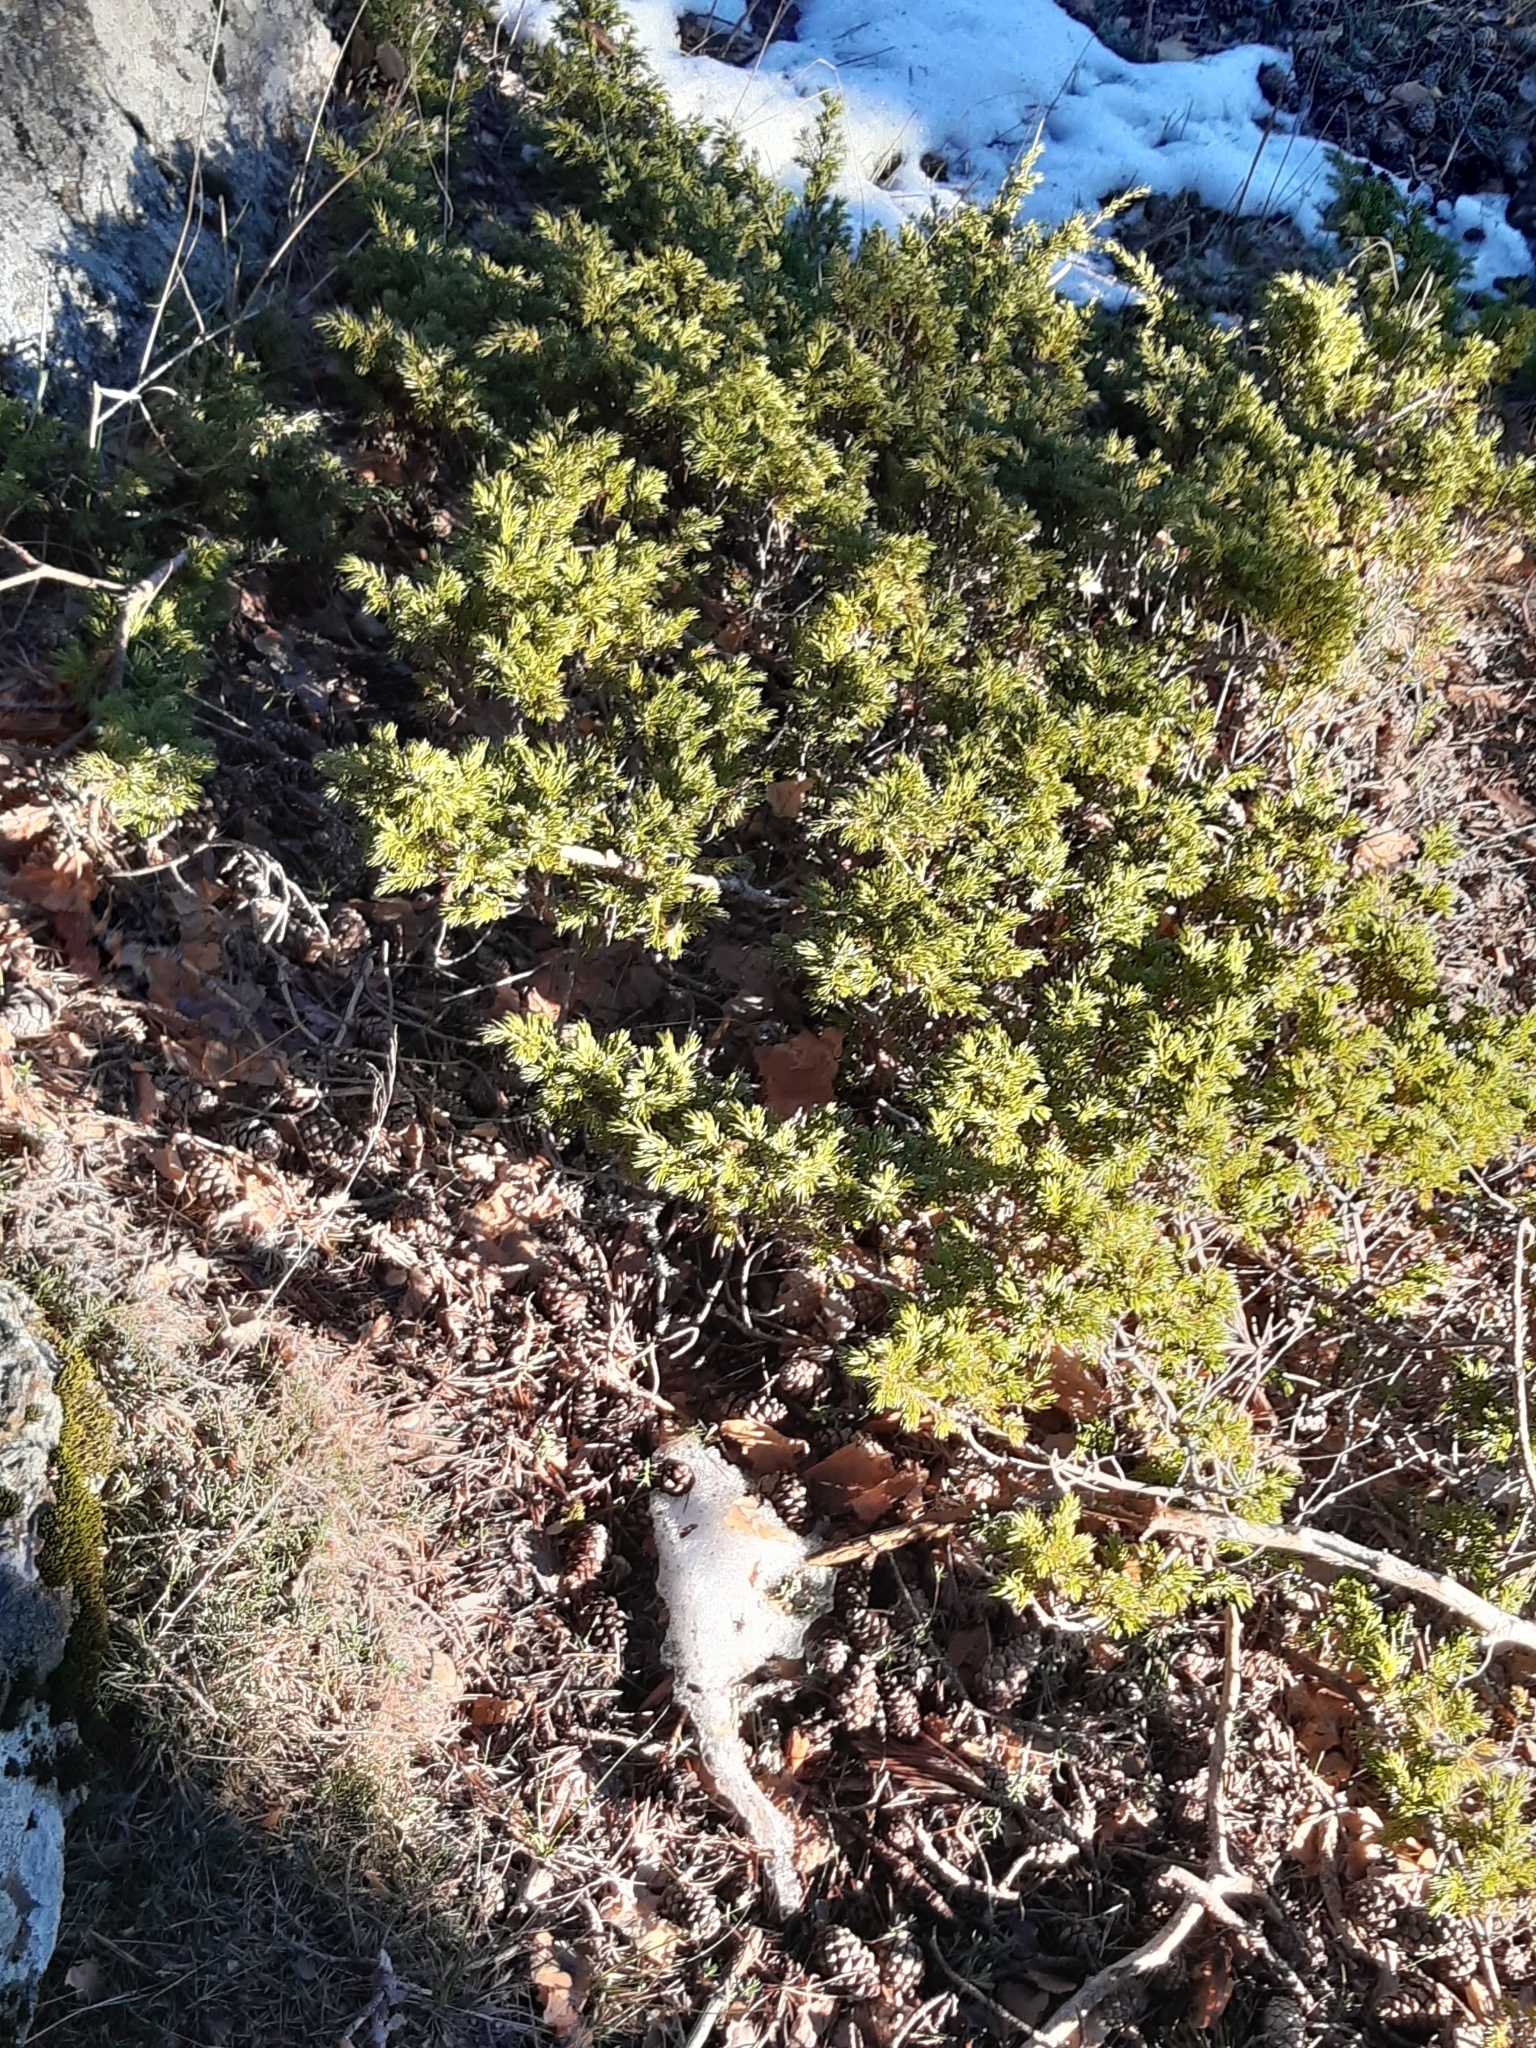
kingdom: Plantae
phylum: Tracheophyta
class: Pinopsida
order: Pinales
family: Cupressaceae
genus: Juniperus
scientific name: Juniperus communis
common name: Common juniper
